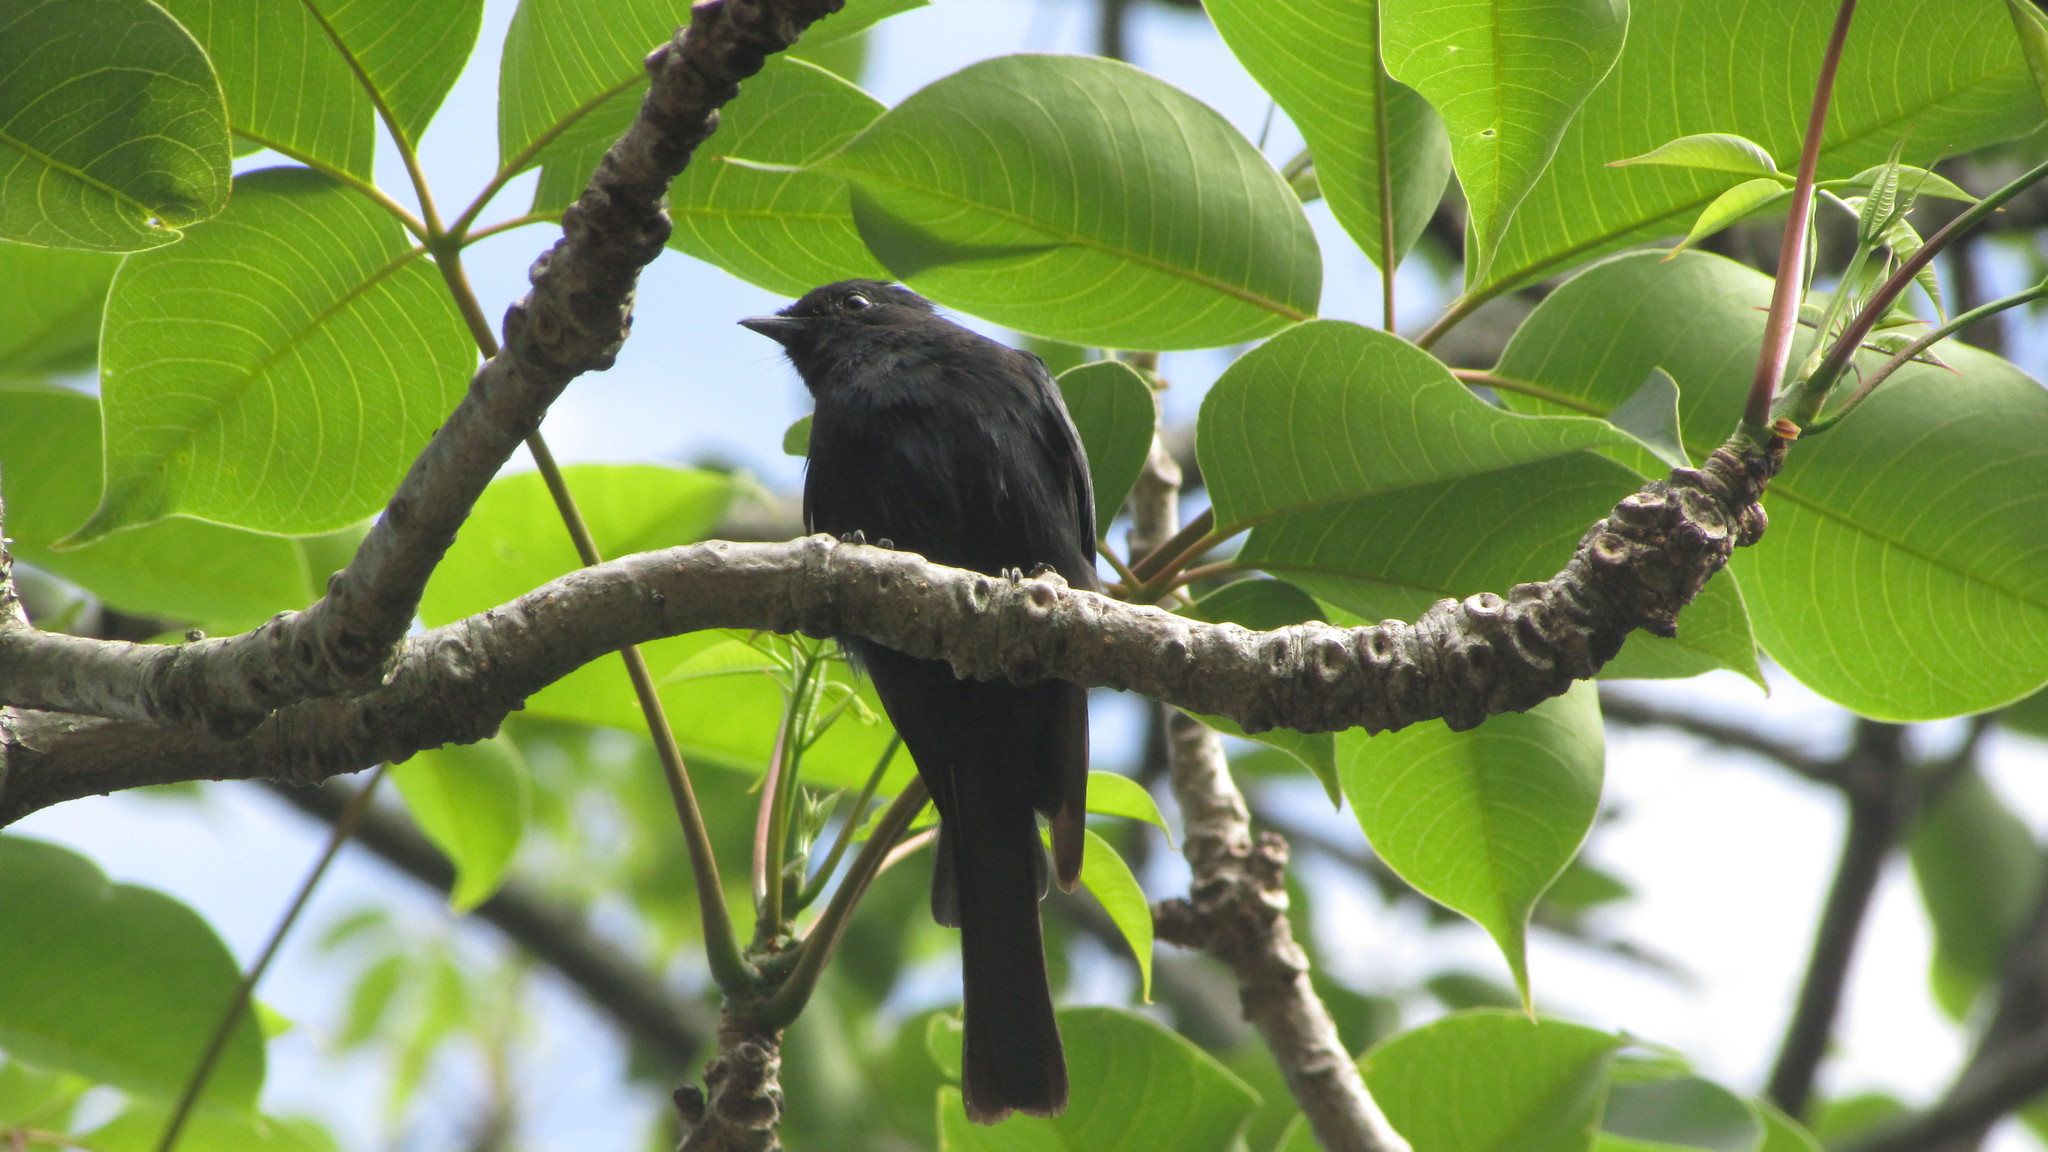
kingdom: Animalia
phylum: Chordata
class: Aves
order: Passeriformes
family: Muscicapidae
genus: Melaenornis
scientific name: Melaenornis pammelaina
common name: Southern black flycatcher
